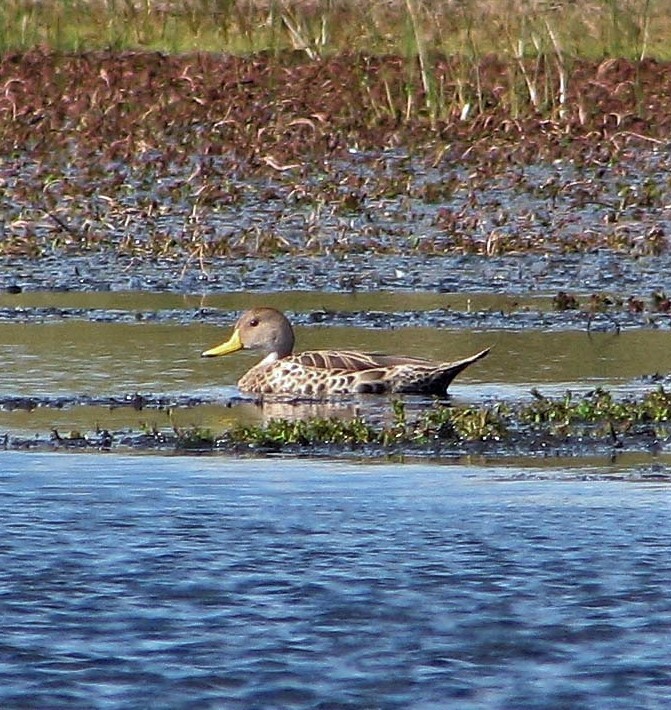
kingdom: Animalia
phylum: Chordata
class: Aves
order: Anseriformes
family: Anatidae
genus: Anas
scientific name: Anas georgica
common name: Yellow-billed pintail
